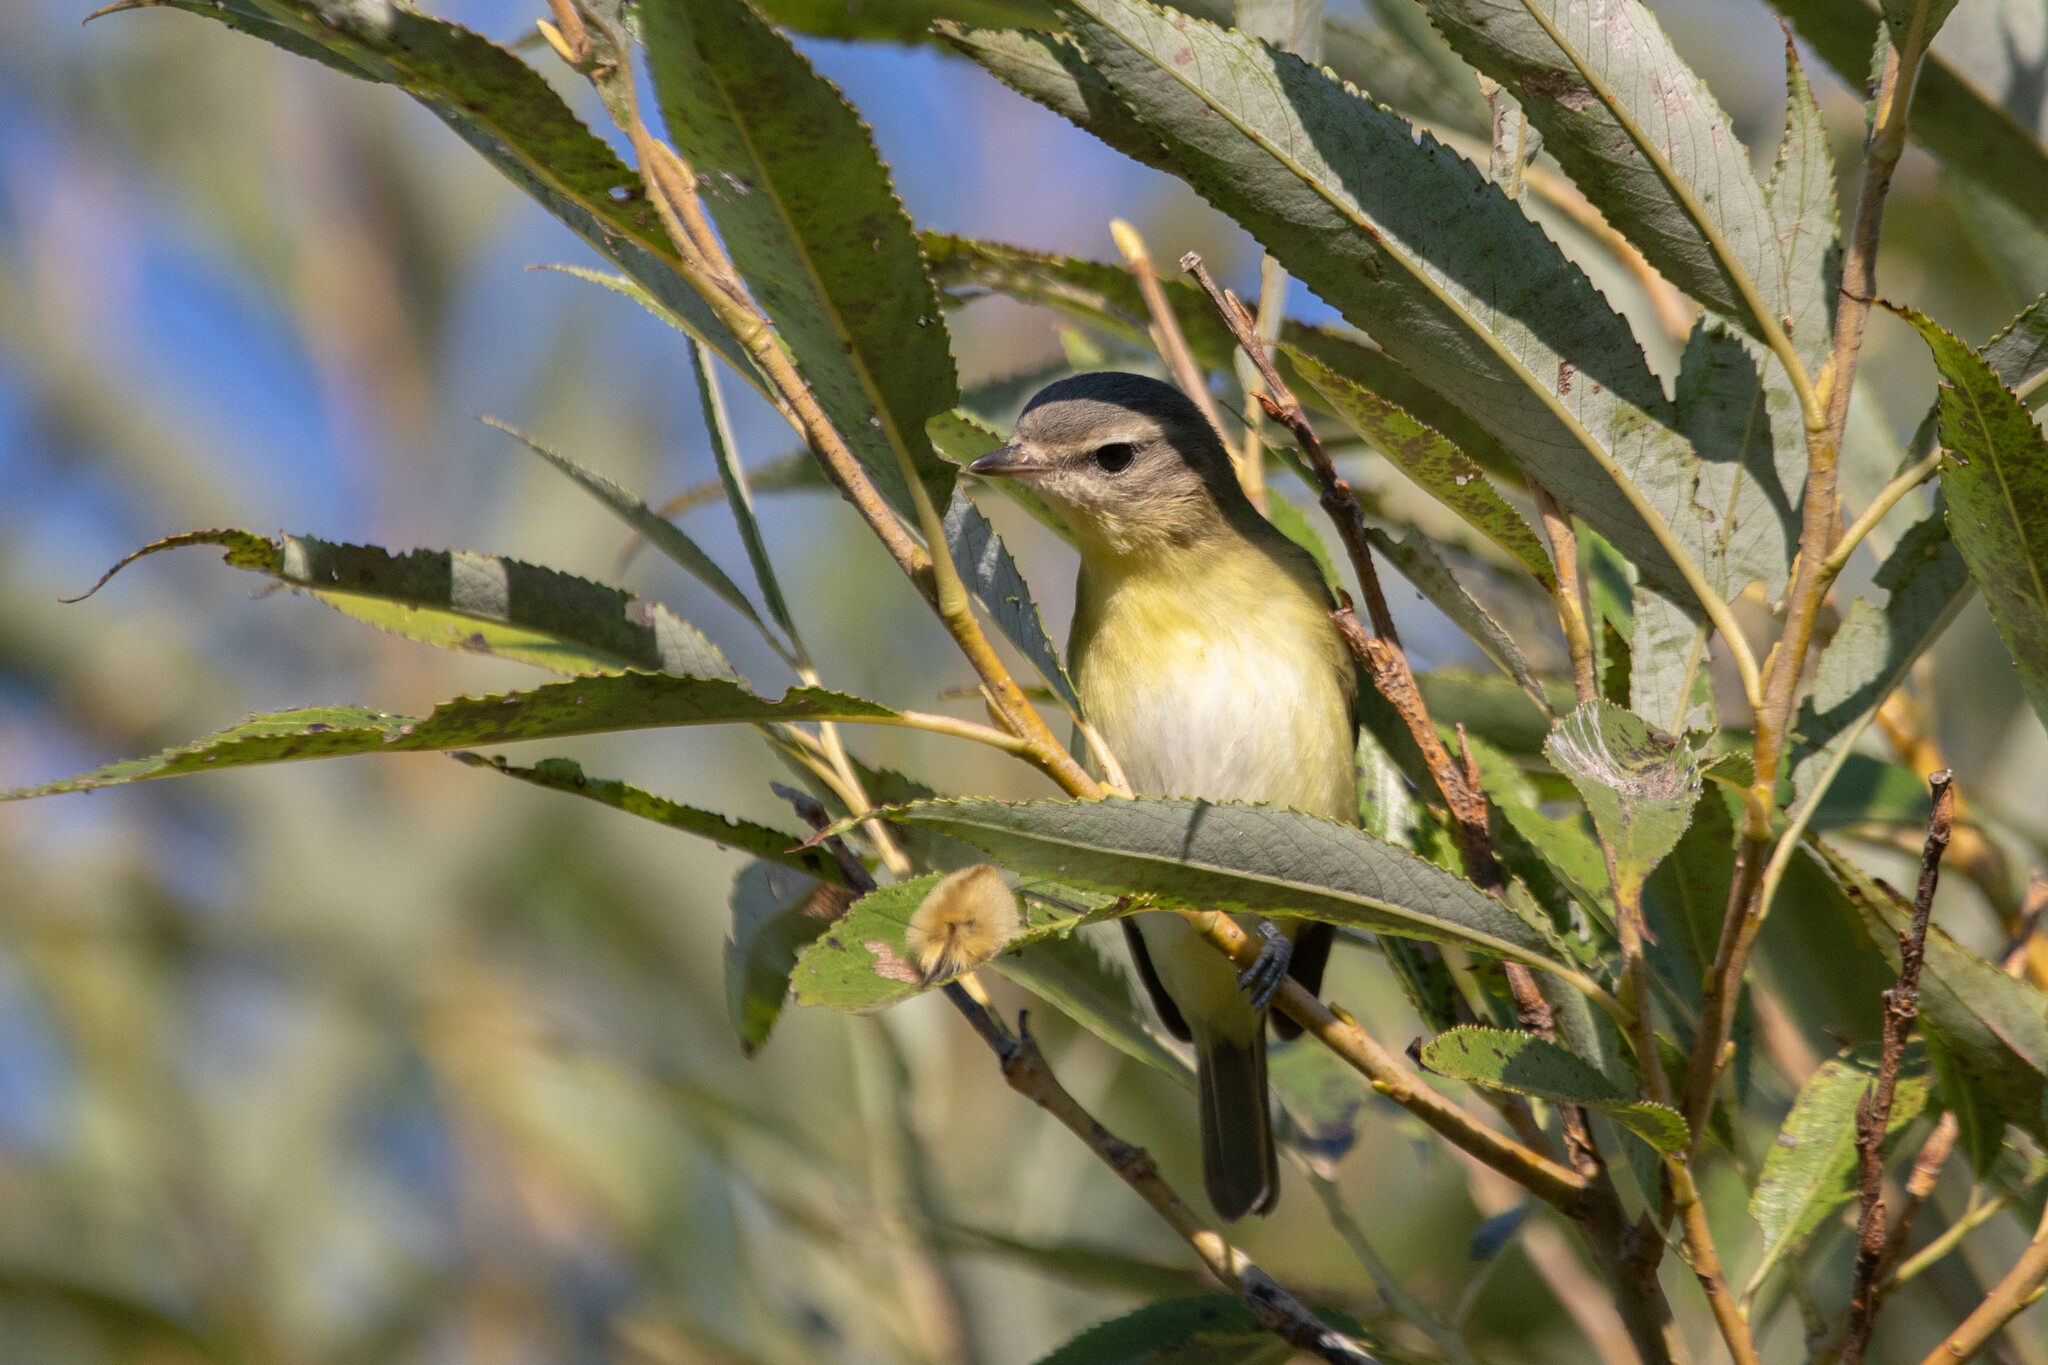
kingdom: Animalia
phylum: Chordata
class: Aves
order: Passeriformes
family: Vireonidae
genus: Vireo
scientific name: Vireo philadelphicus
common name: Philadelphia vireo
